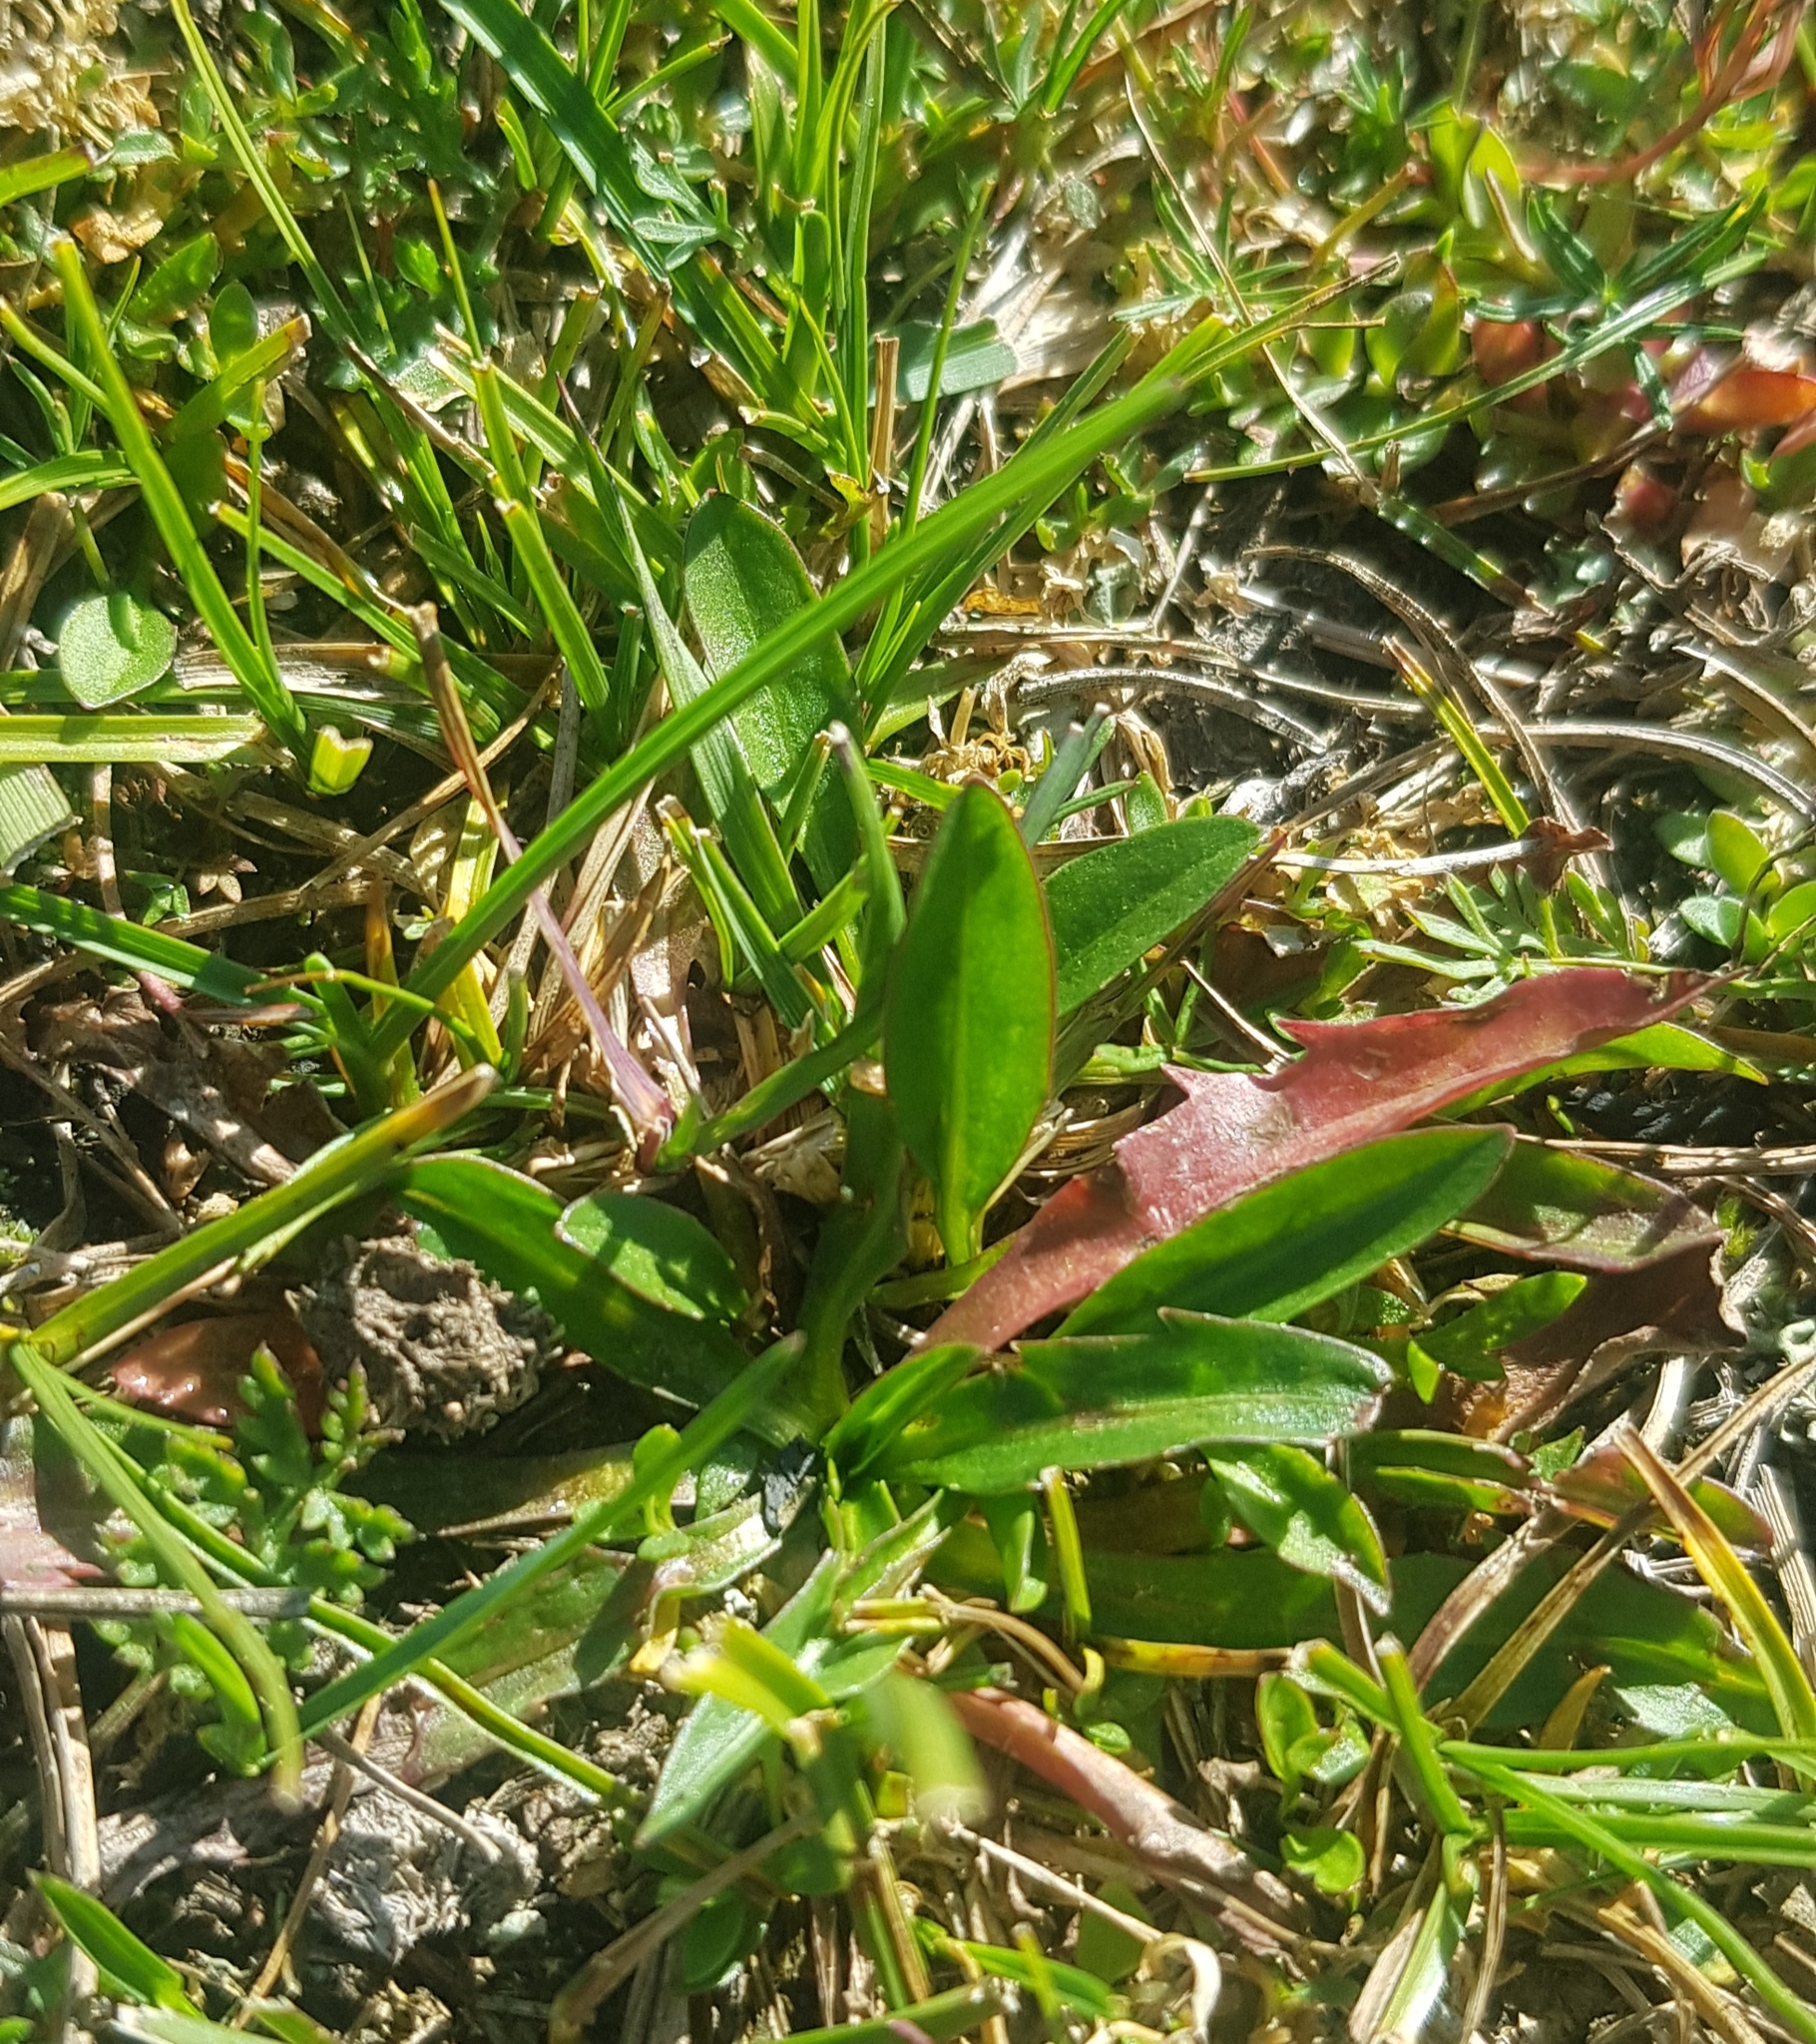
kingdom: Plantae
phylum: Tracheophyta
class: Magnoliopsida
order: Caryophyllales
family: Polygonaceae
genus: Bistorta
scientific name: Bistorta vivipara
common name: Alpine bistort
